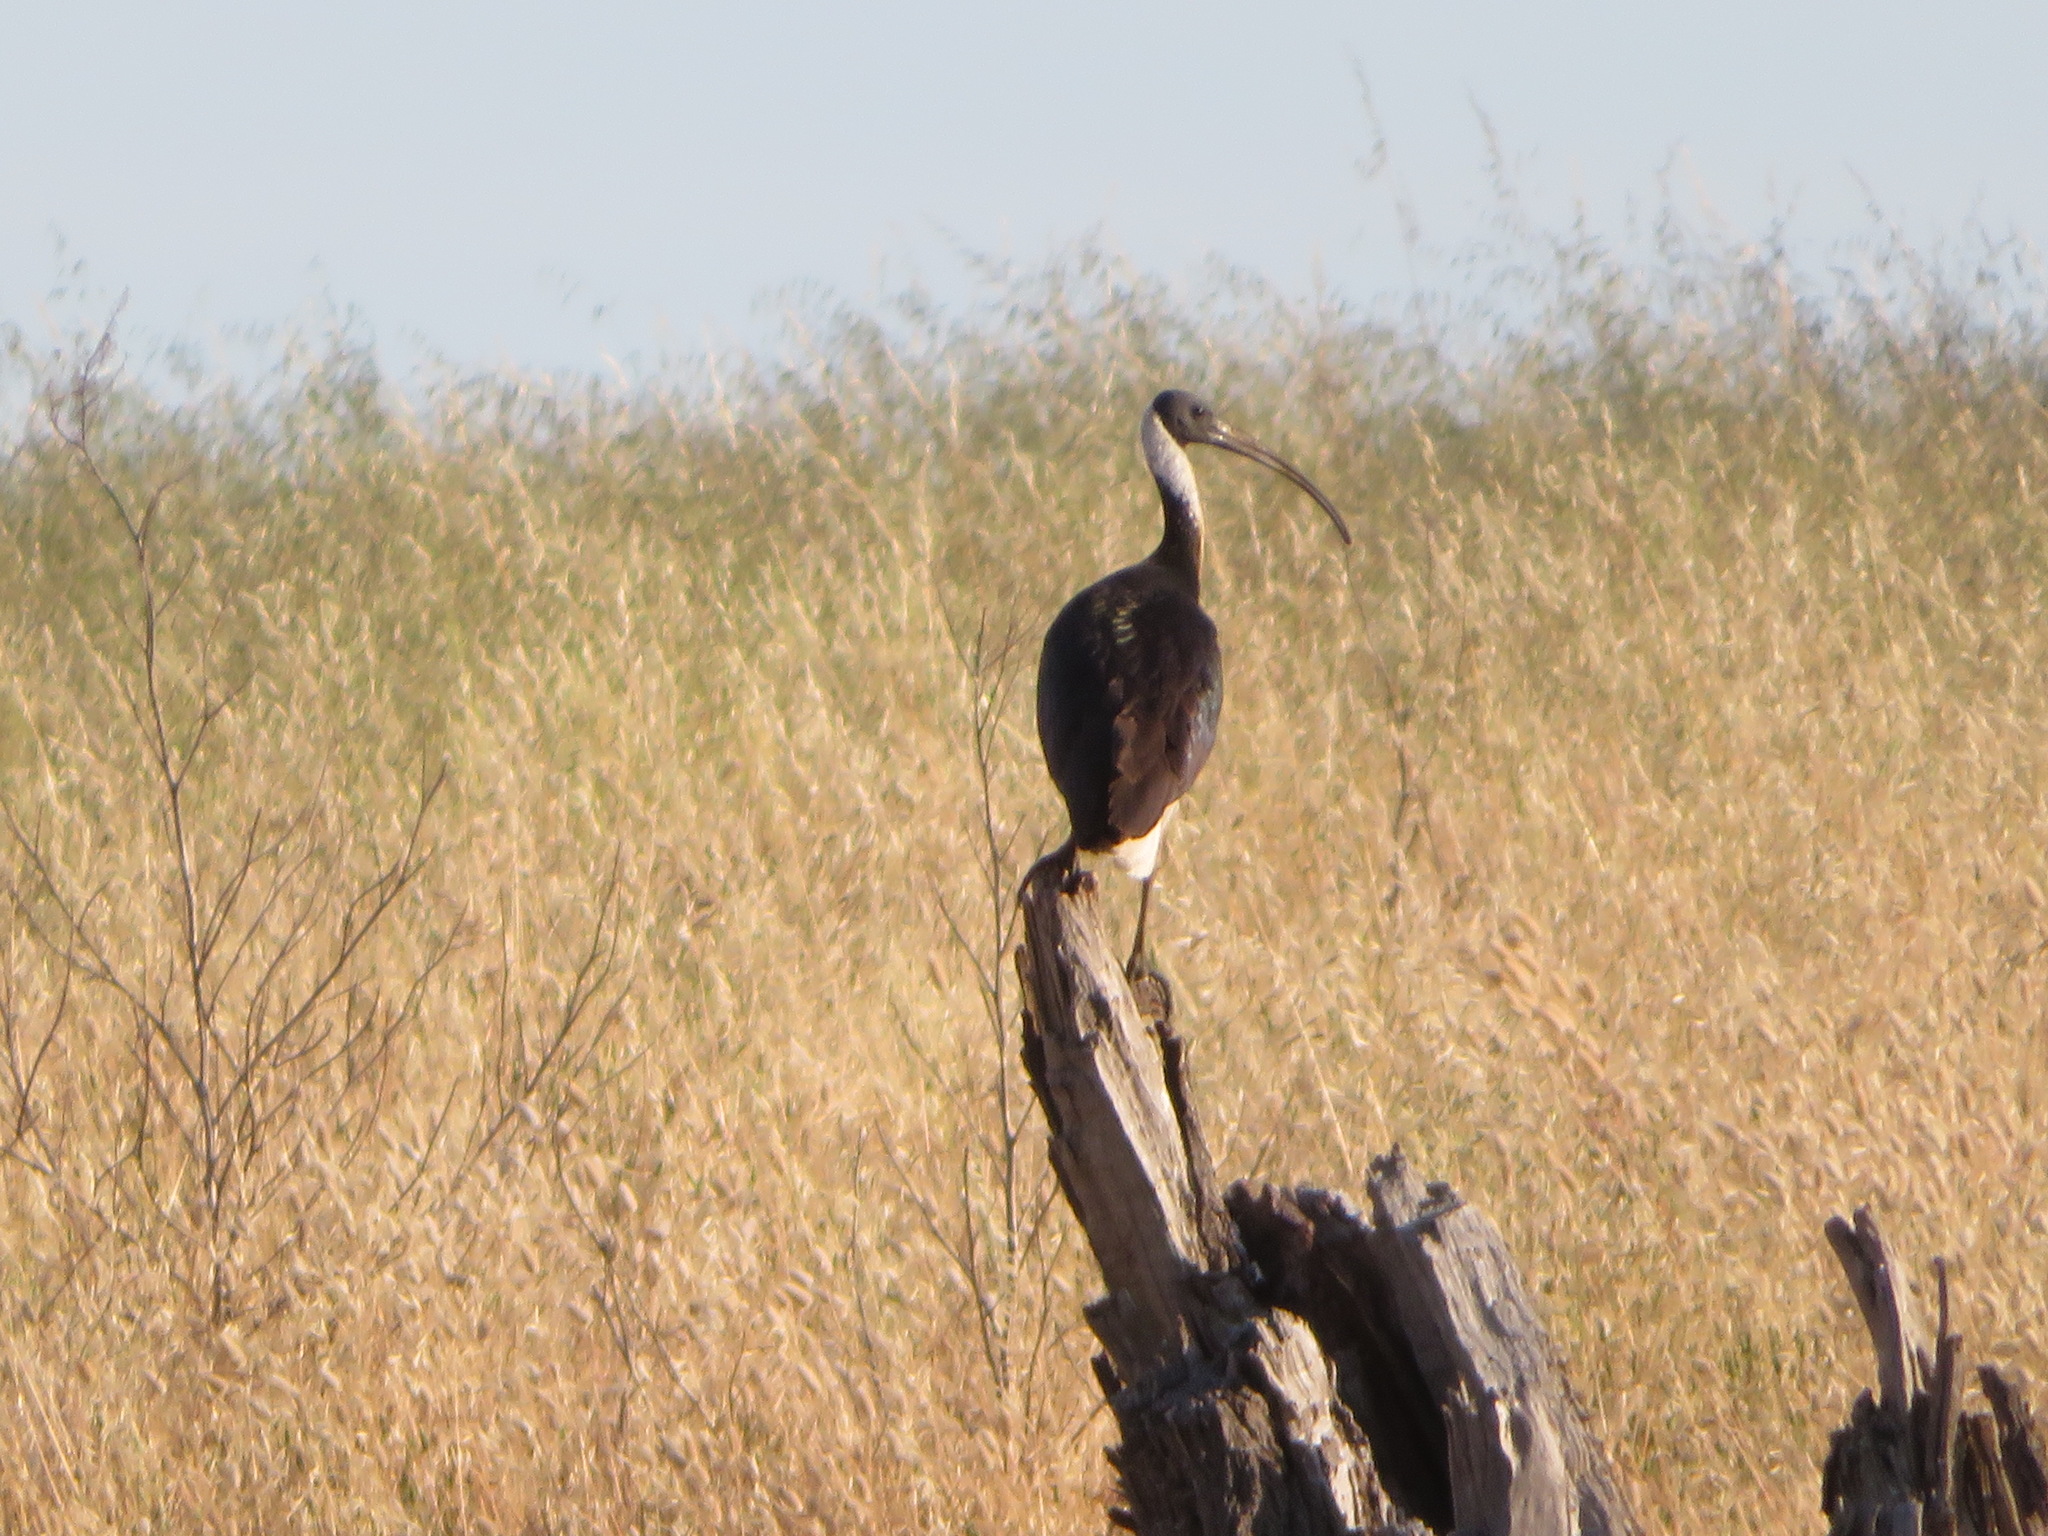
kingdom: Animalia
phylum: Chordata
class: Aves
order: Pelecaniformes
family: Threskiornithidae
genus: Threskiornis
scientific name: Threskiornis spinicollis
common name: Straw-necked ibis
